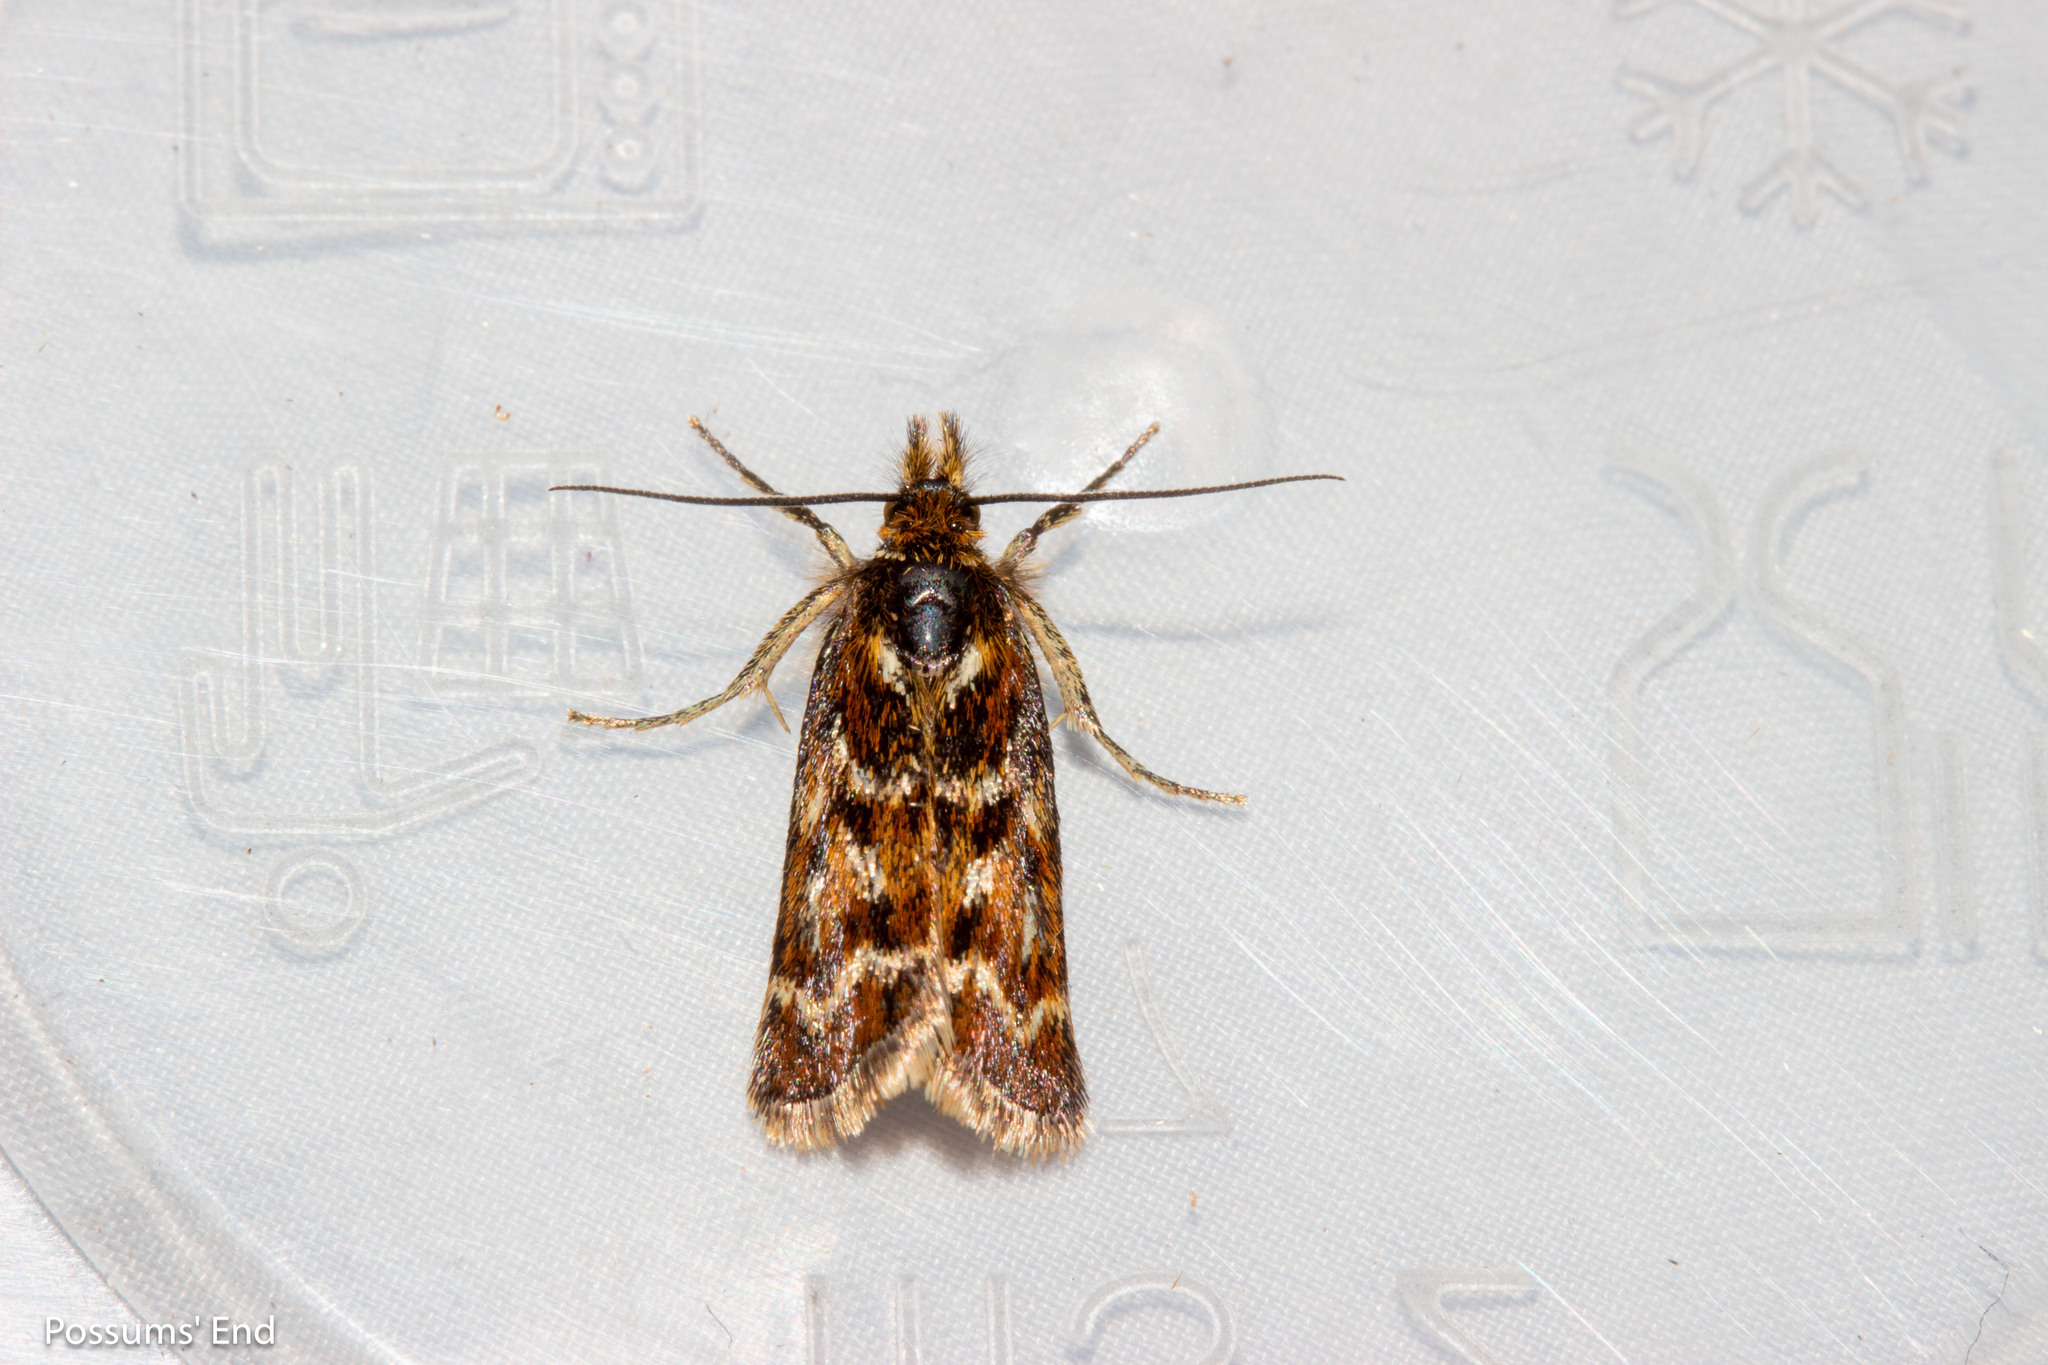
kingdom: Animalia
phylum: Arthropoda
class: Insecta
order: Lepidoptera
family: Crambidae
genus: Orocrambus
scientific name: Orocrambus scoparioides
